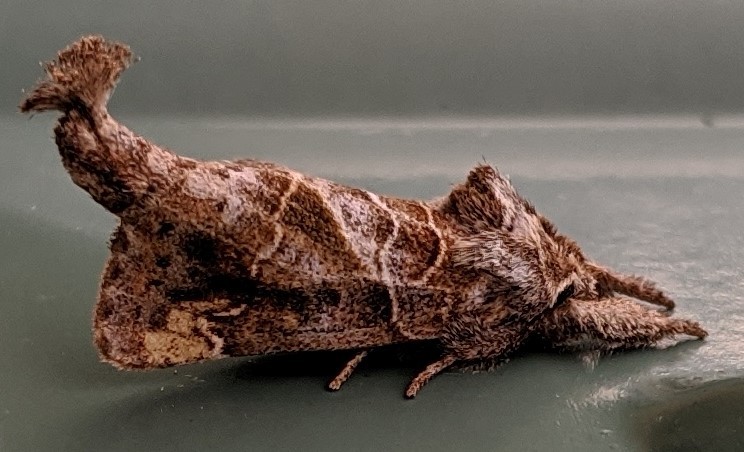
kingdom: Animalia
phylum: Arthropoda
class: Insecta
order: Lepidoptera
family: Notodontidae
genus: Clostera
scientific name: Clostera strigosa
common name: Striped chocolate-tip moth
